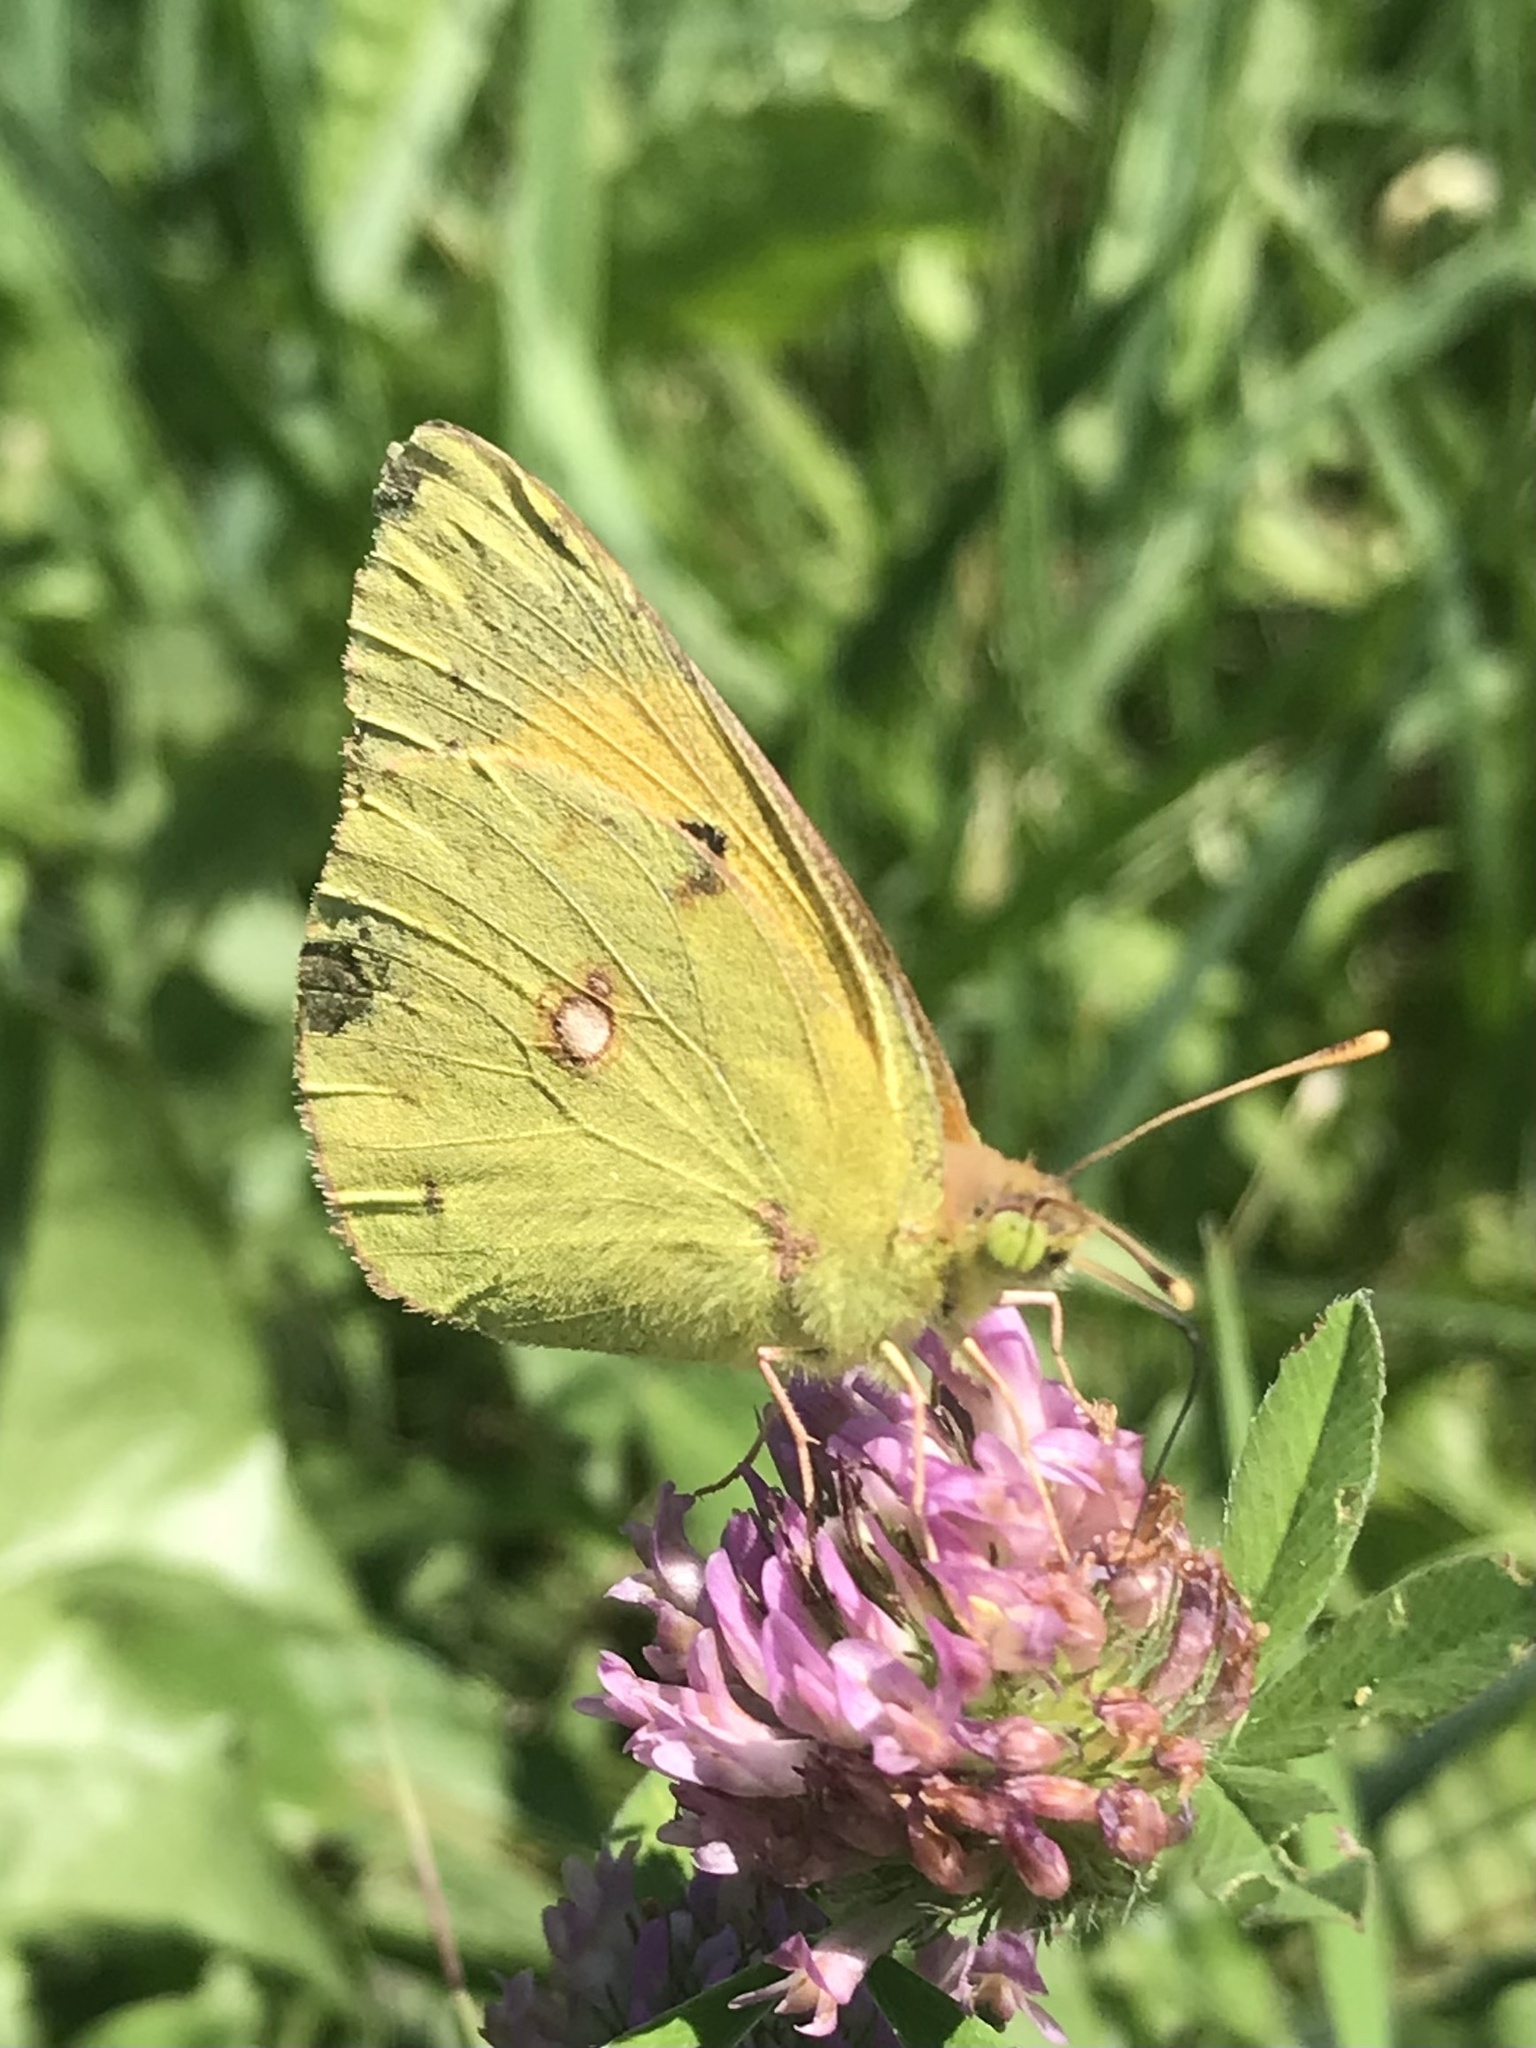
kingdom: Animalia
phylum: Arthropoda
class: Insecta
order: Lepidoptera
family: Pieridae
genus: Colias
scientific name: Colias croceus
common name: Clouded yellow
